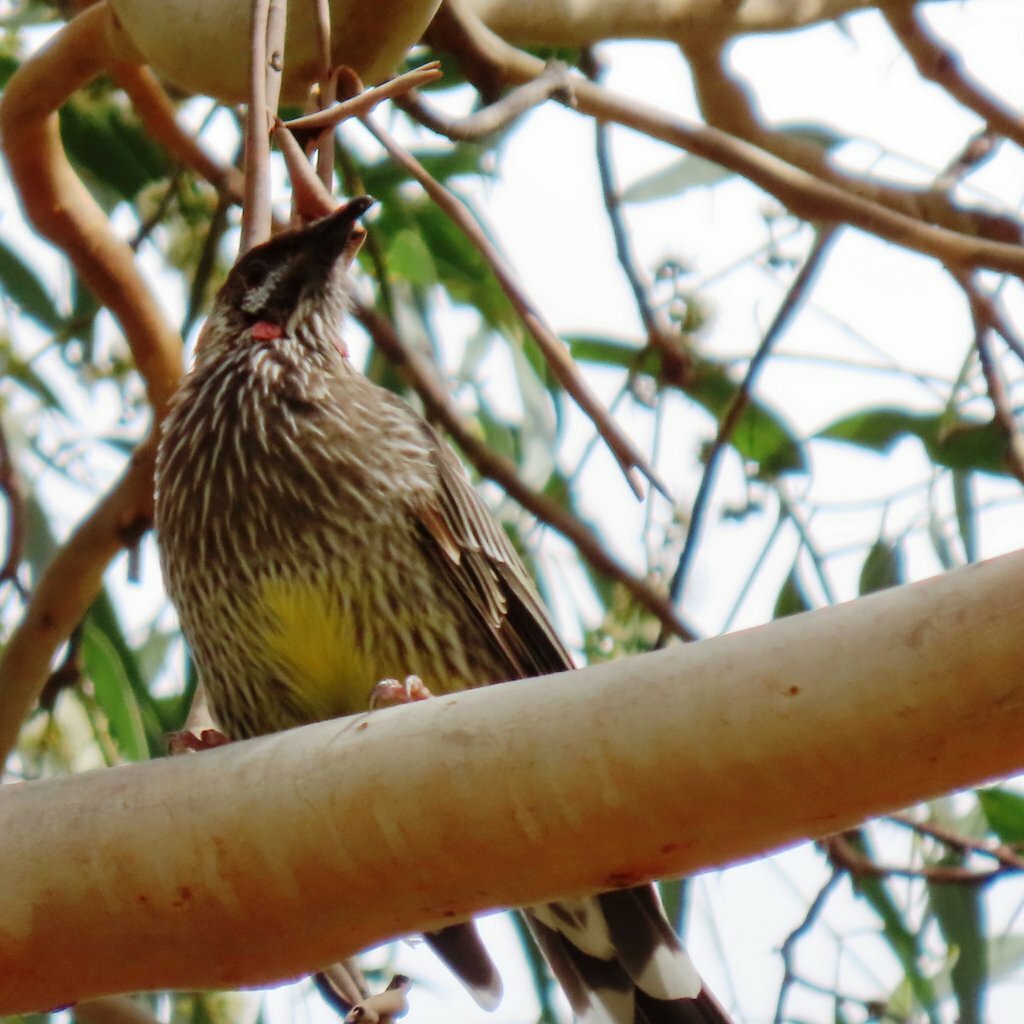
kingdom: Animalia
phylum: Chordata
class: Aves
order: Passeriformes
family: Meliphagidae
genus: Anthochaera
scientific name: Anthochaera carunculata
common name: Red wattlebird
